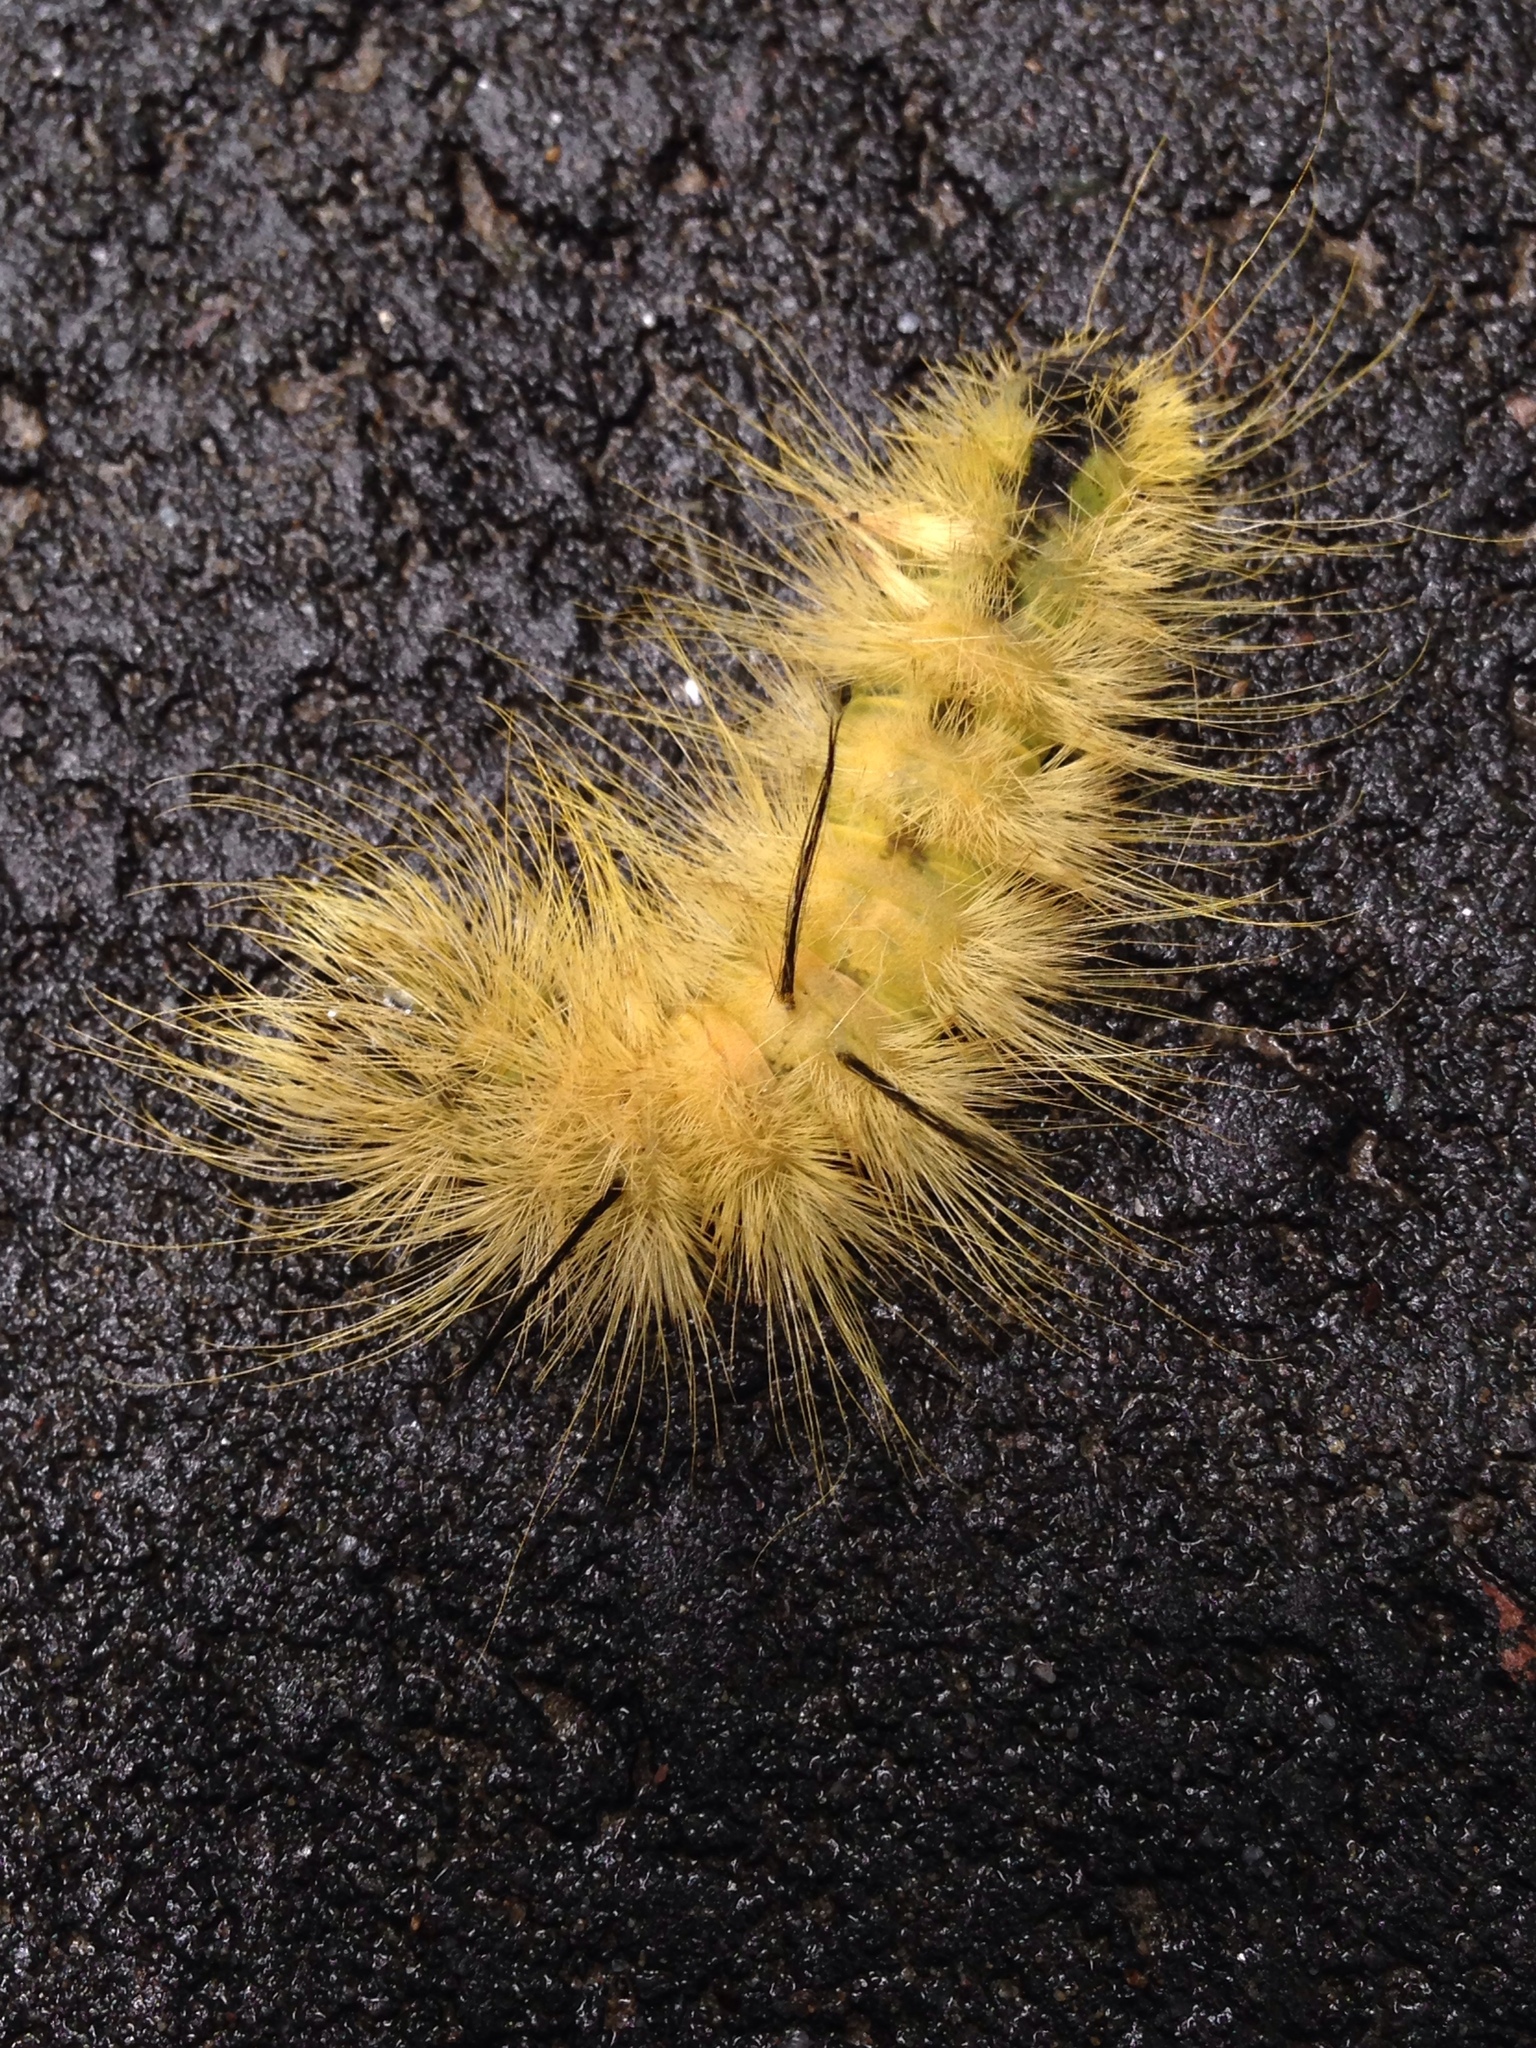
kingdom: Animalia
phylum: Arthropoda
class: Insecta
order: Lepidoptera
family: Noctuidae
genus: Acronicta
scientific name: Acronicta americana
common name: American dagger
